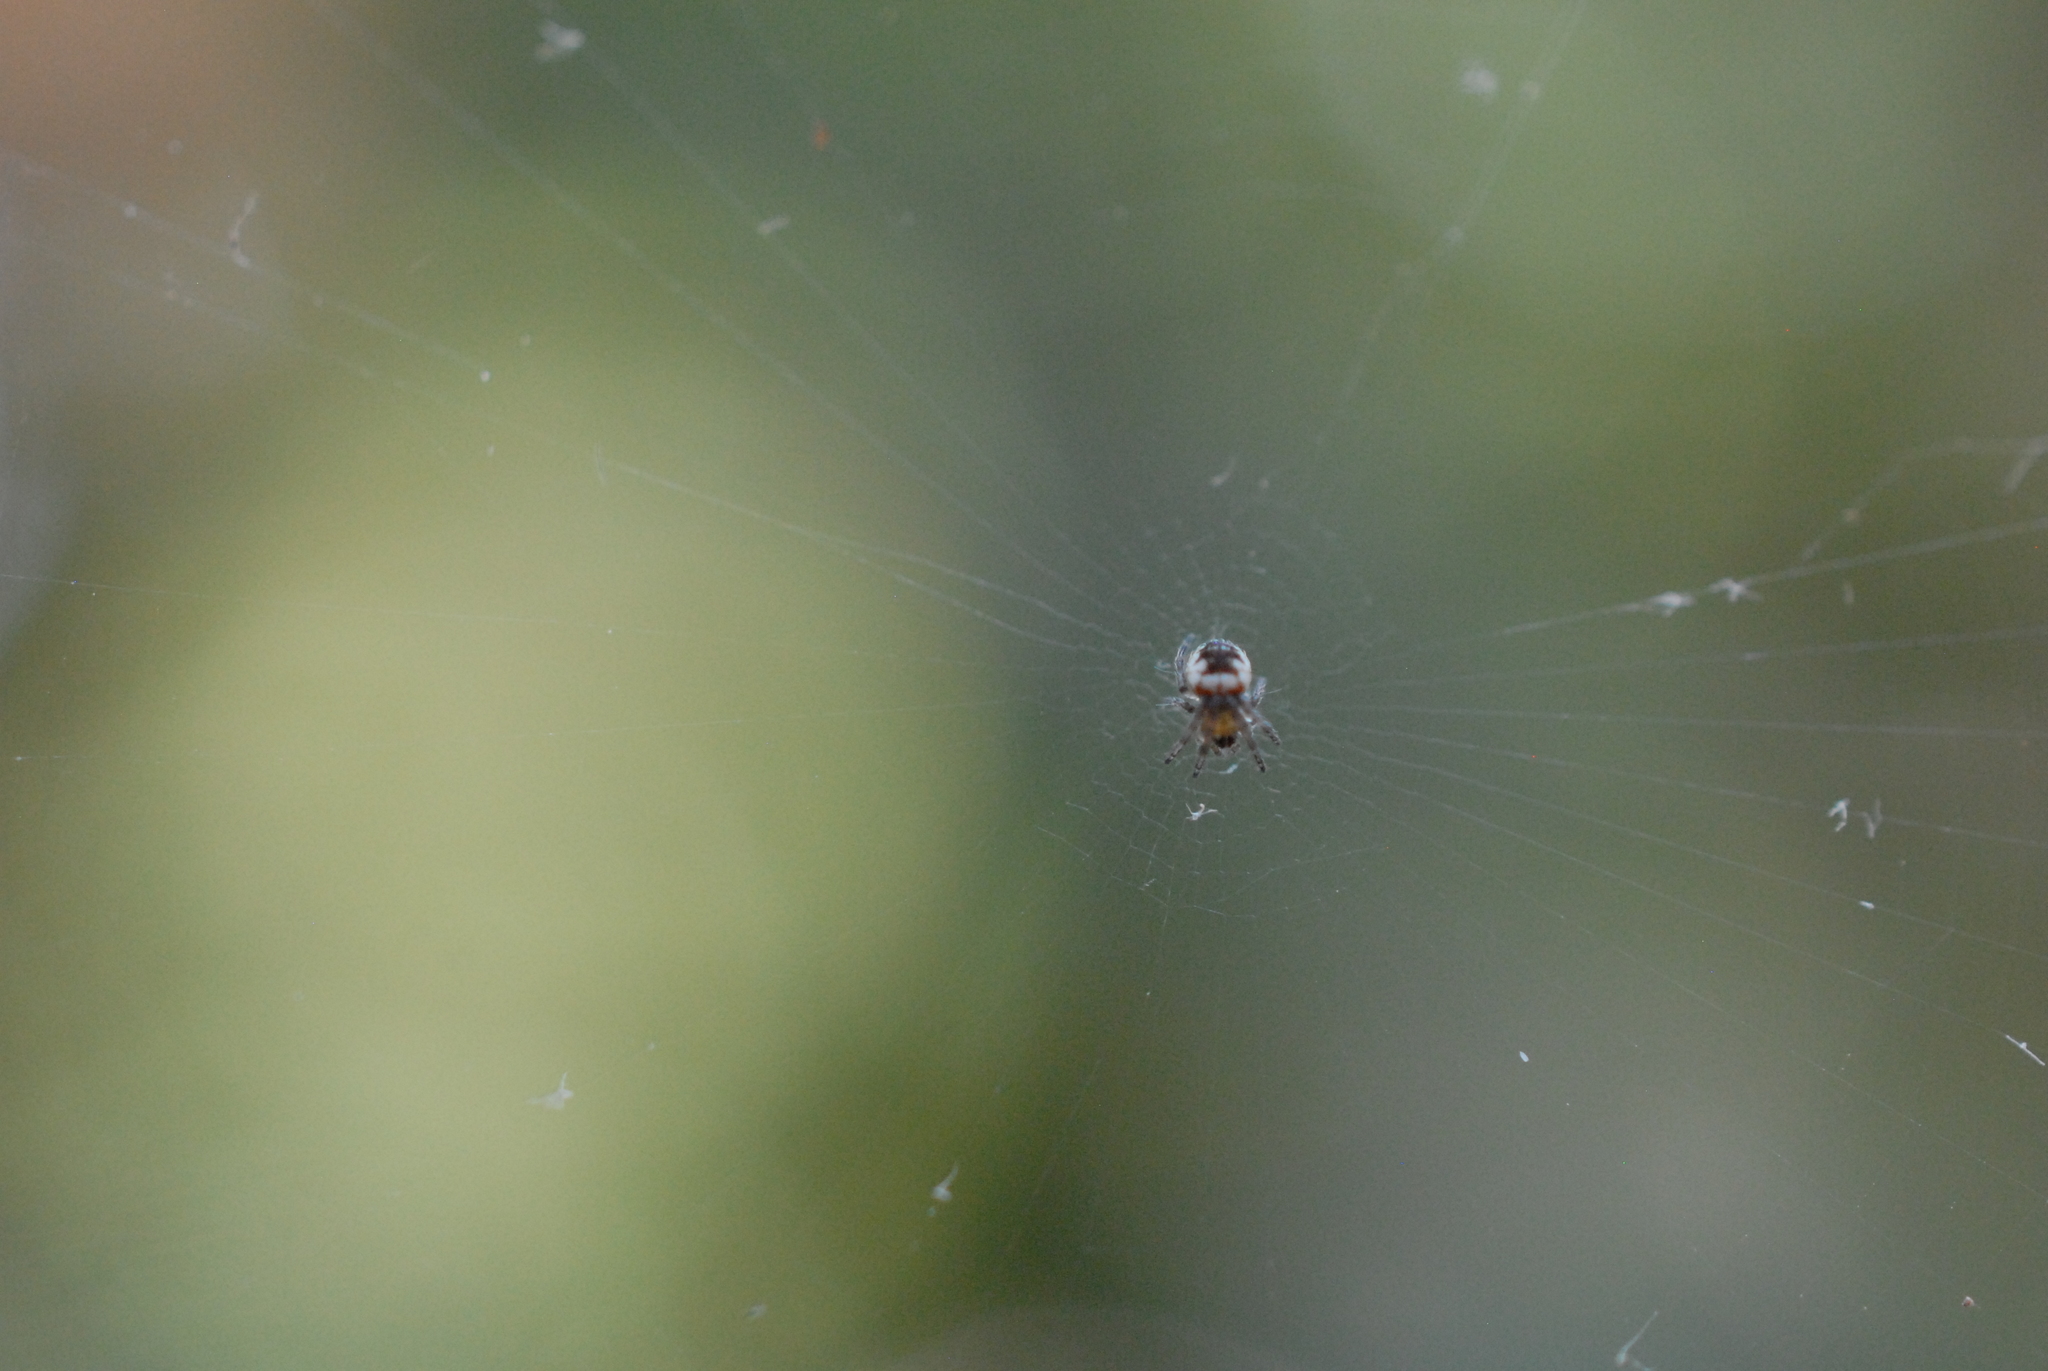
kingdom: Animalia
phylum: Arthropoda
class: Arachnida
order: Araneae
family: Araneidae
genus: Zilla
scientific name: Zilla diodia
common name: Zilla diodia
